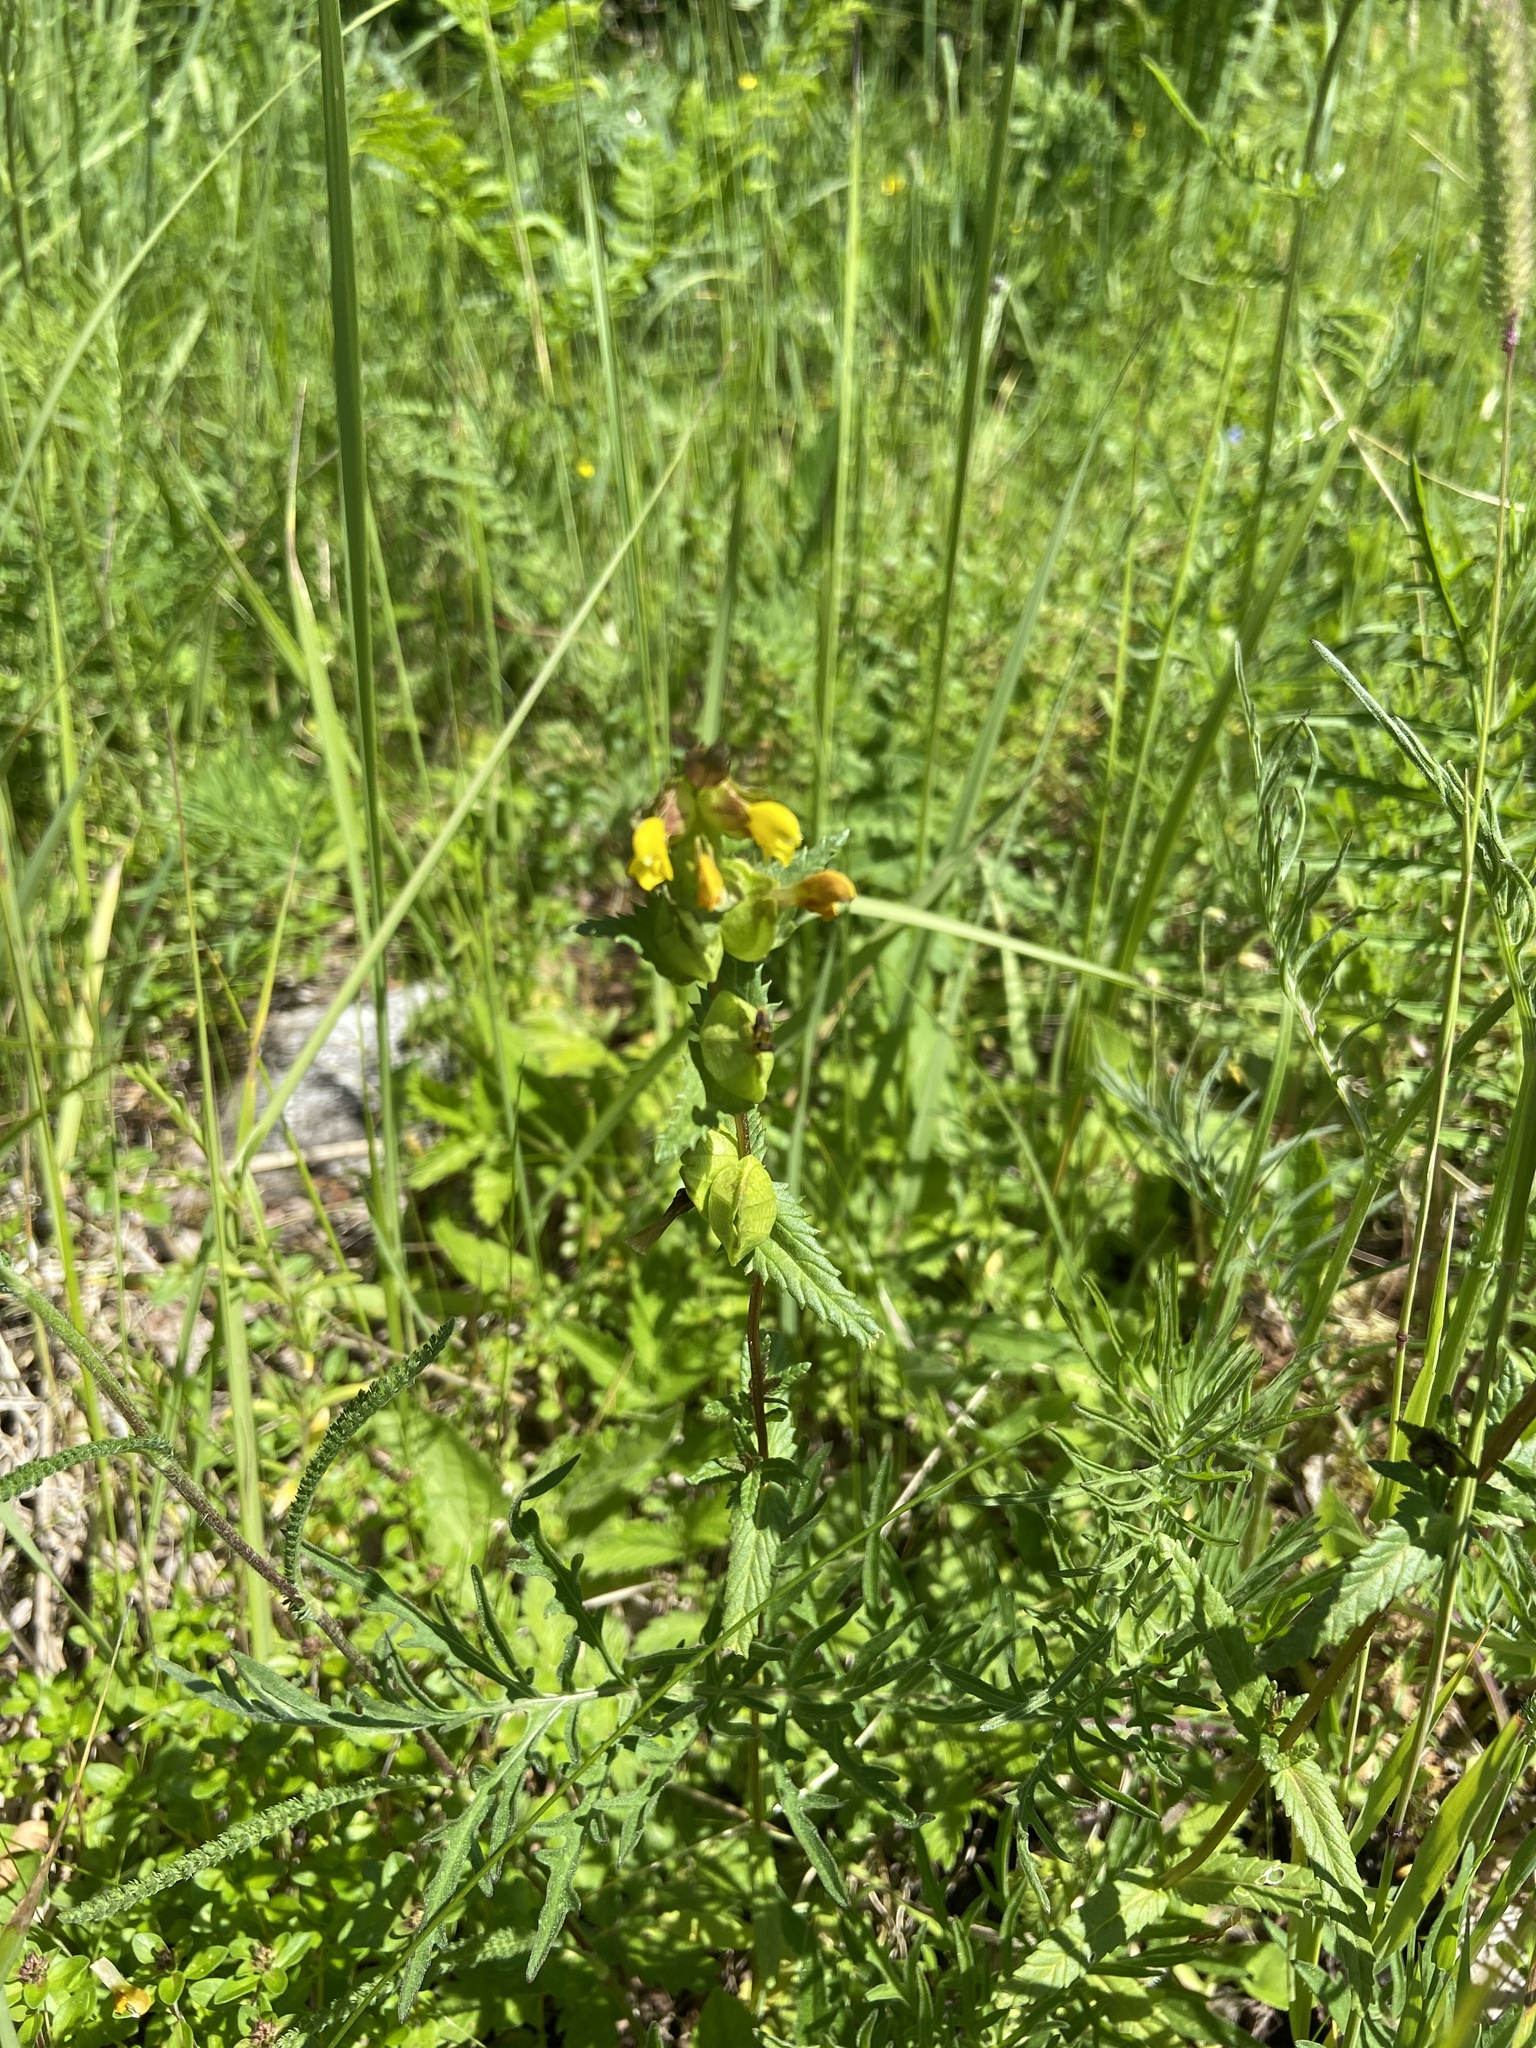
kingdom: Plantae
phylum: Tracheophyta
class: Magnoliopsida
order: Lamiales
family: Orobanchaceae
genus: Rhinanthus
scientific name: Rhinanthus minor
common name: Yellow-rattle
